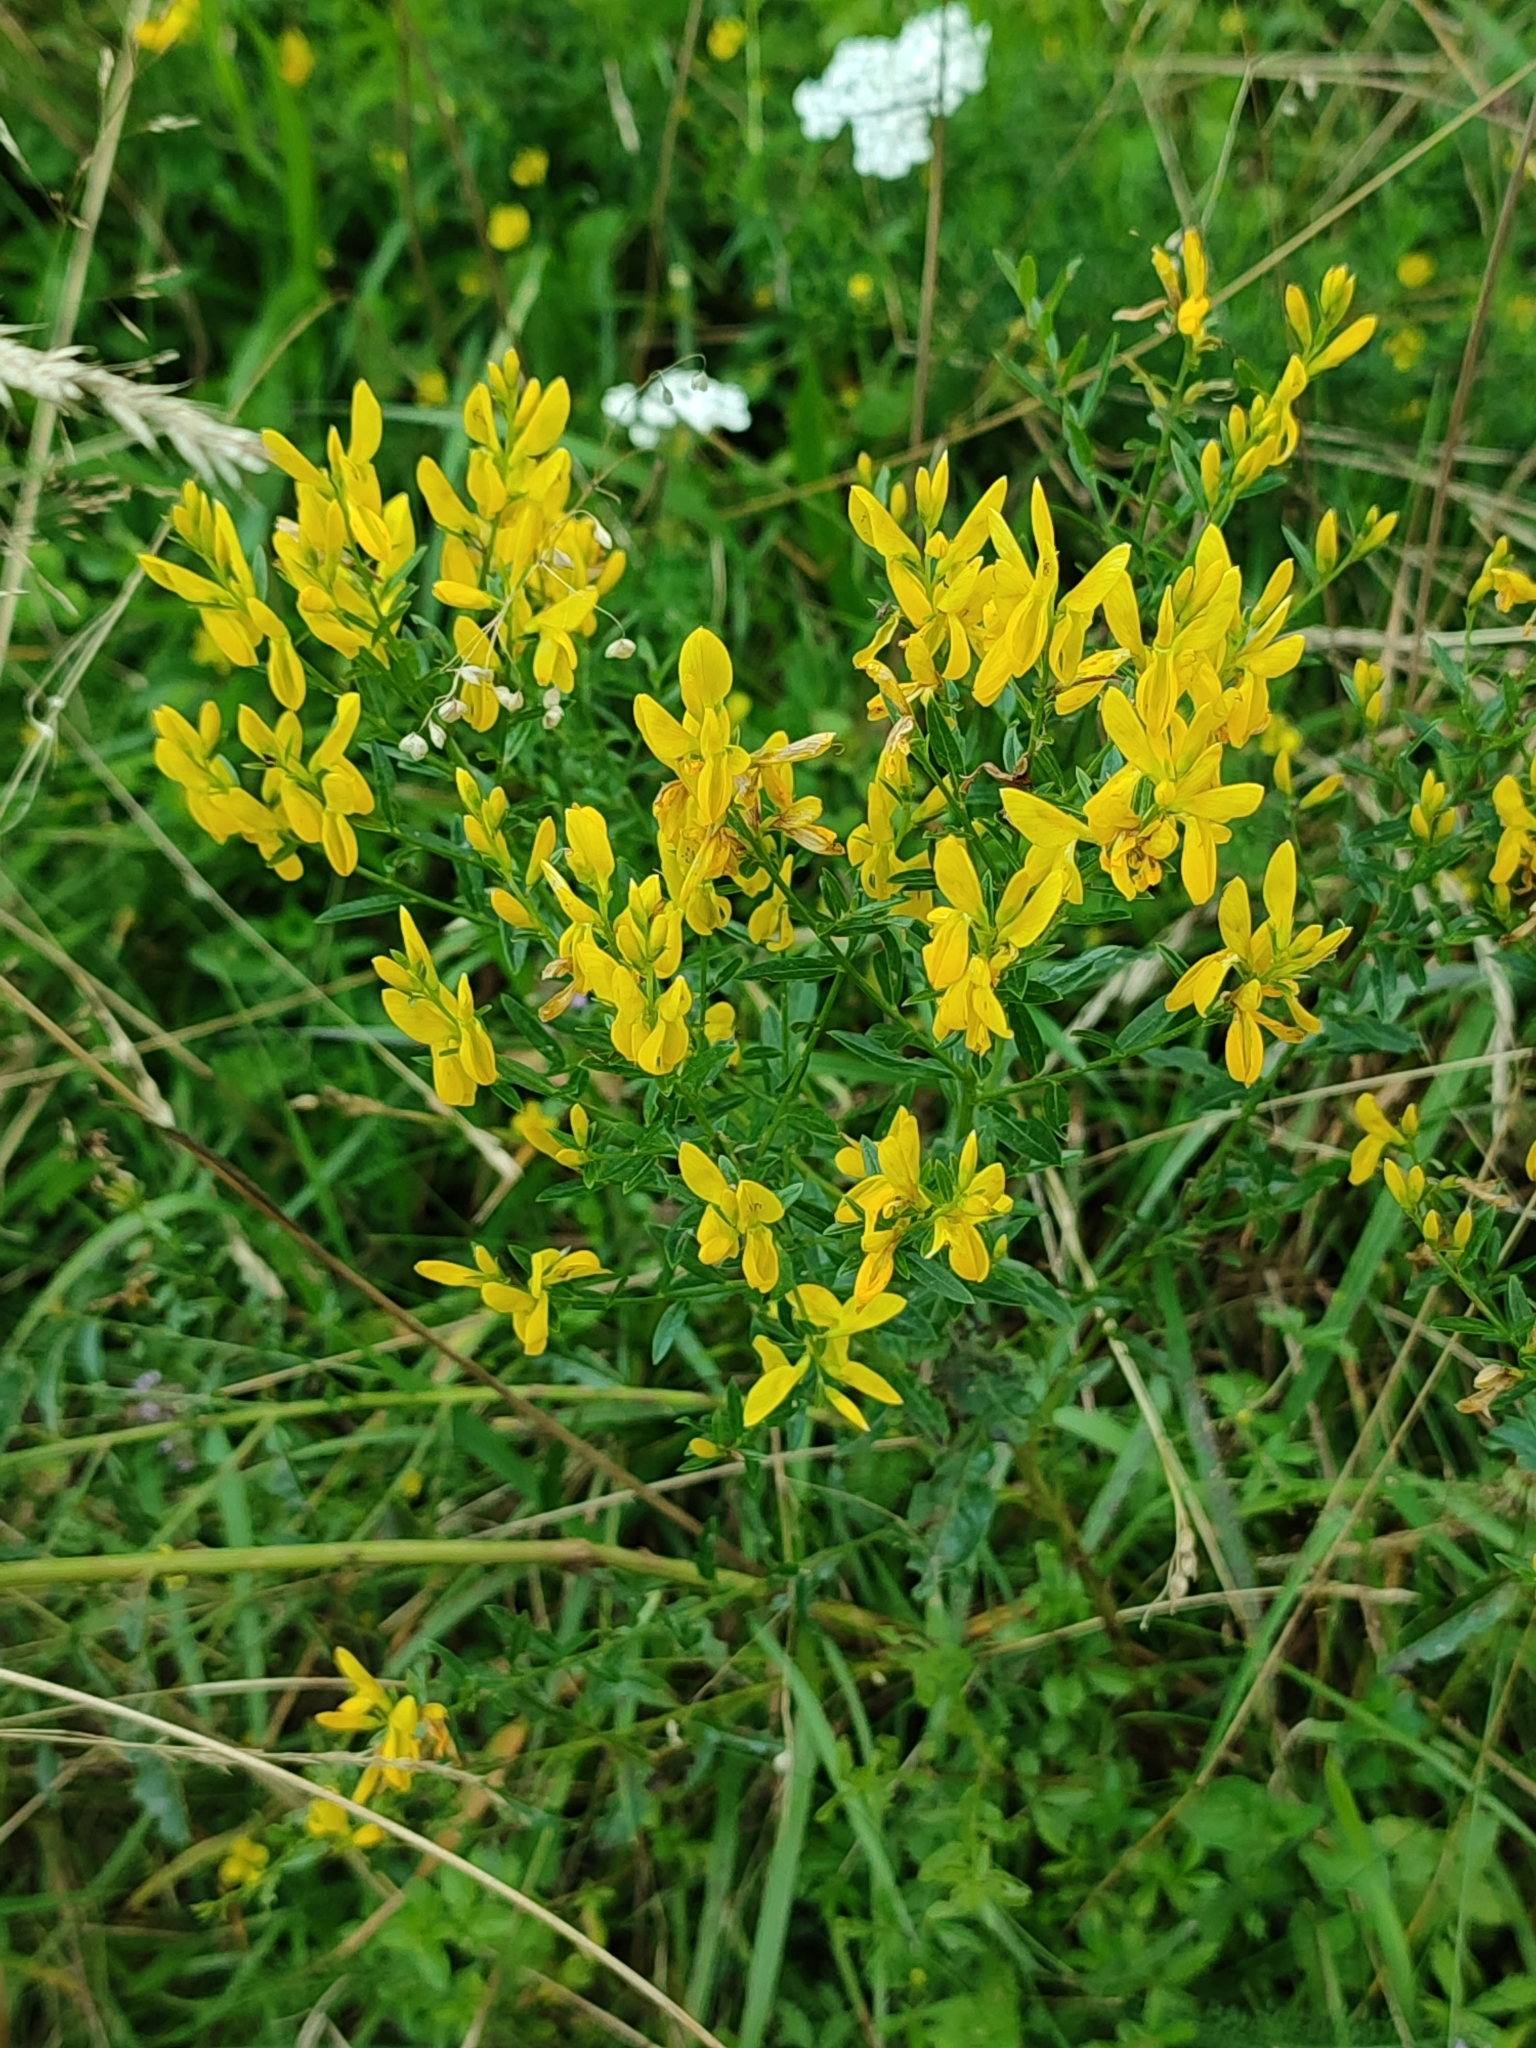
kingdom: Plantae
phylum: Tracheophyta
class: Magnoliopsida
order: Fabales
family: Fabaceae
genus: Genista
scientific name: Genista tinctoria
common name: Dyer's greenweed
